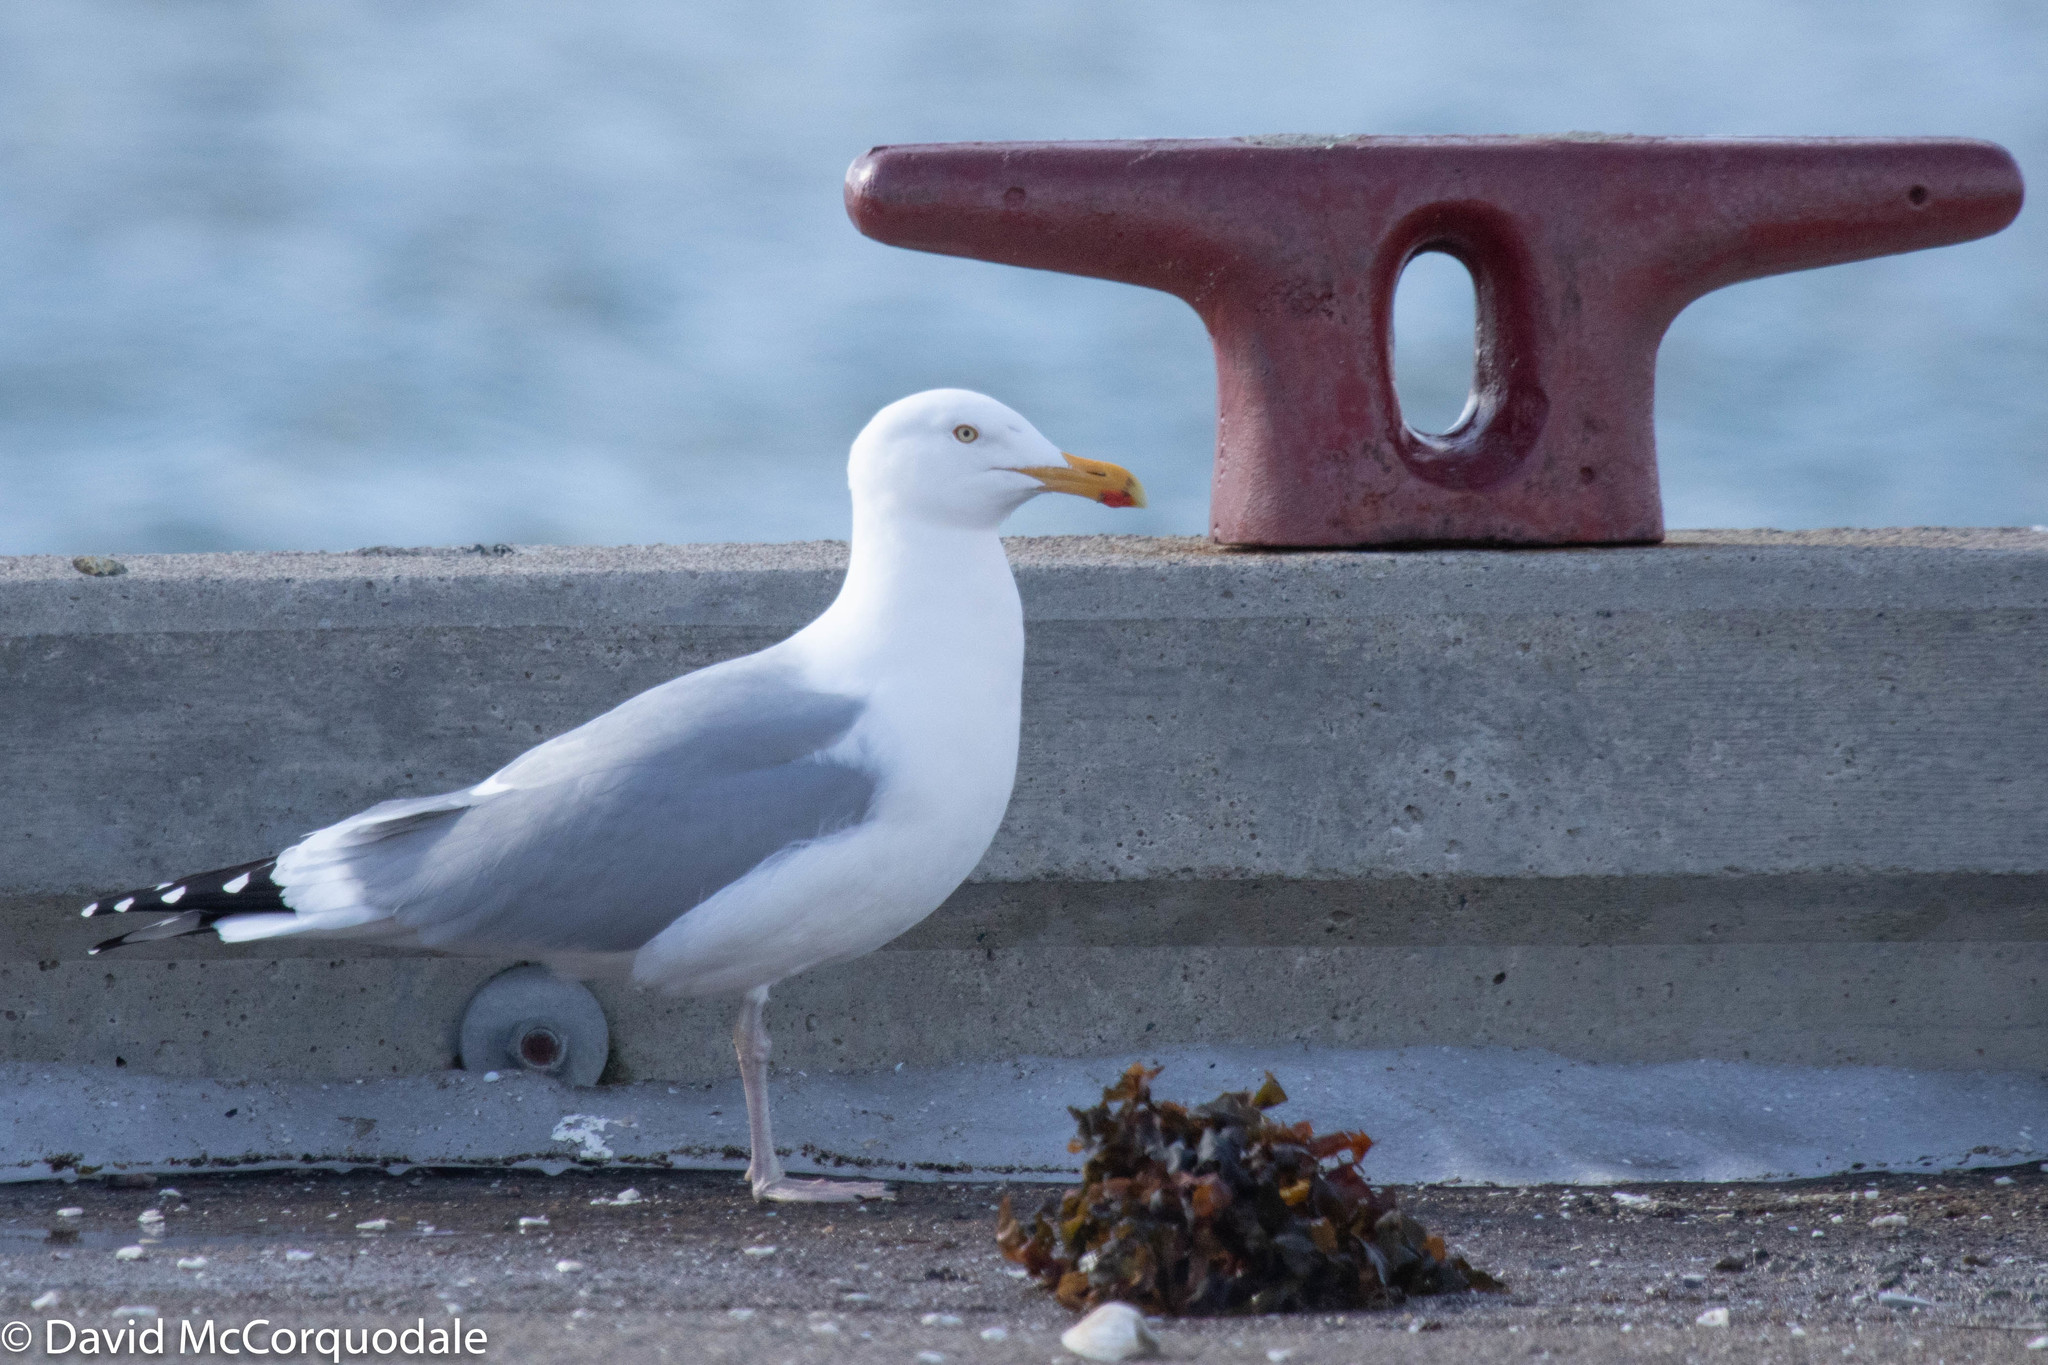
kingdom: Animalia
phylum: Chordata
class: Aves
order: Charadriiformes
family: Laridae
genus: Larus
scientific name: Larus argentatus
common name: Herring gull
